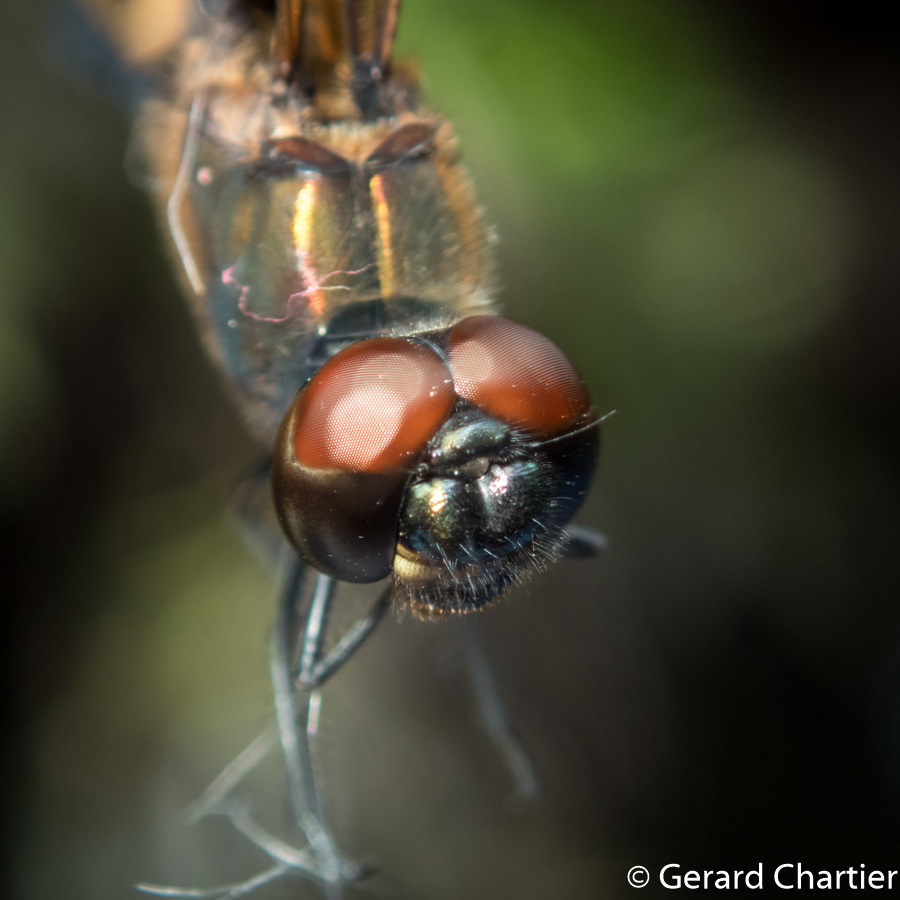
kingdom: Animalia
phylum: Arthropoda
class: Insecta
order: Odonata
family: Libellulidae
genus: Rhyothemis
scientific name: Rhyothemis phyllis
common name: Yellow-barred flutterer
